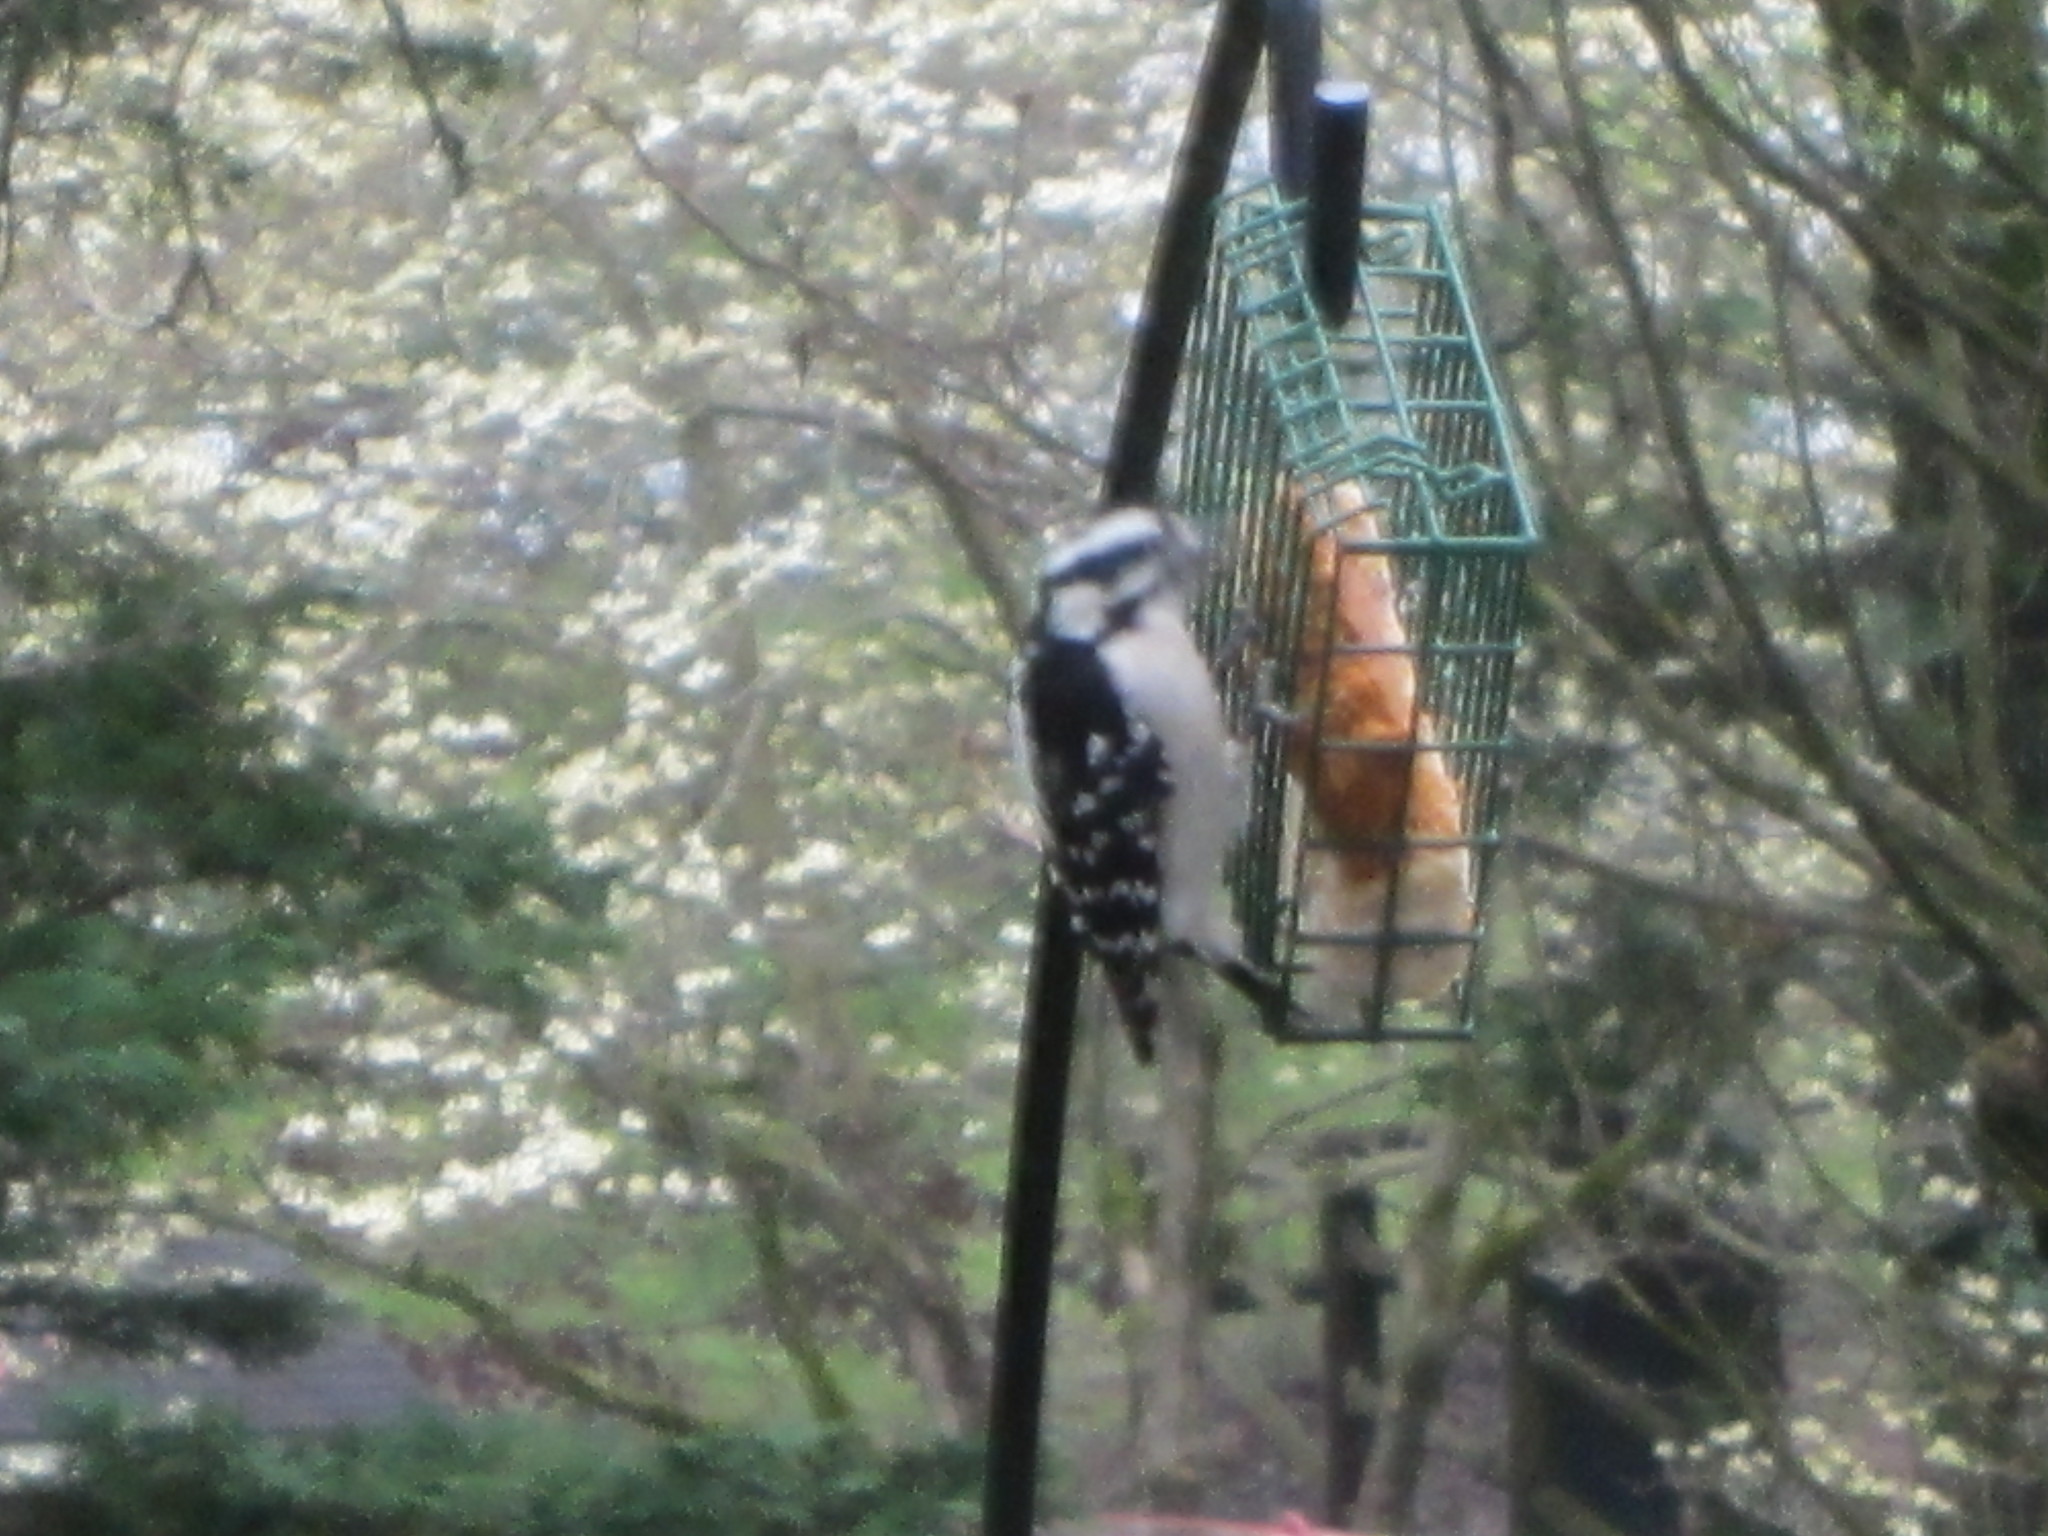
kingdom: Animalia
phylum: Chordata
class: Aves
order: Piciformes
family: Picidae
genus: Dryobates
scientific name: Dryobates pubescens
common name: Downy woodpecker
